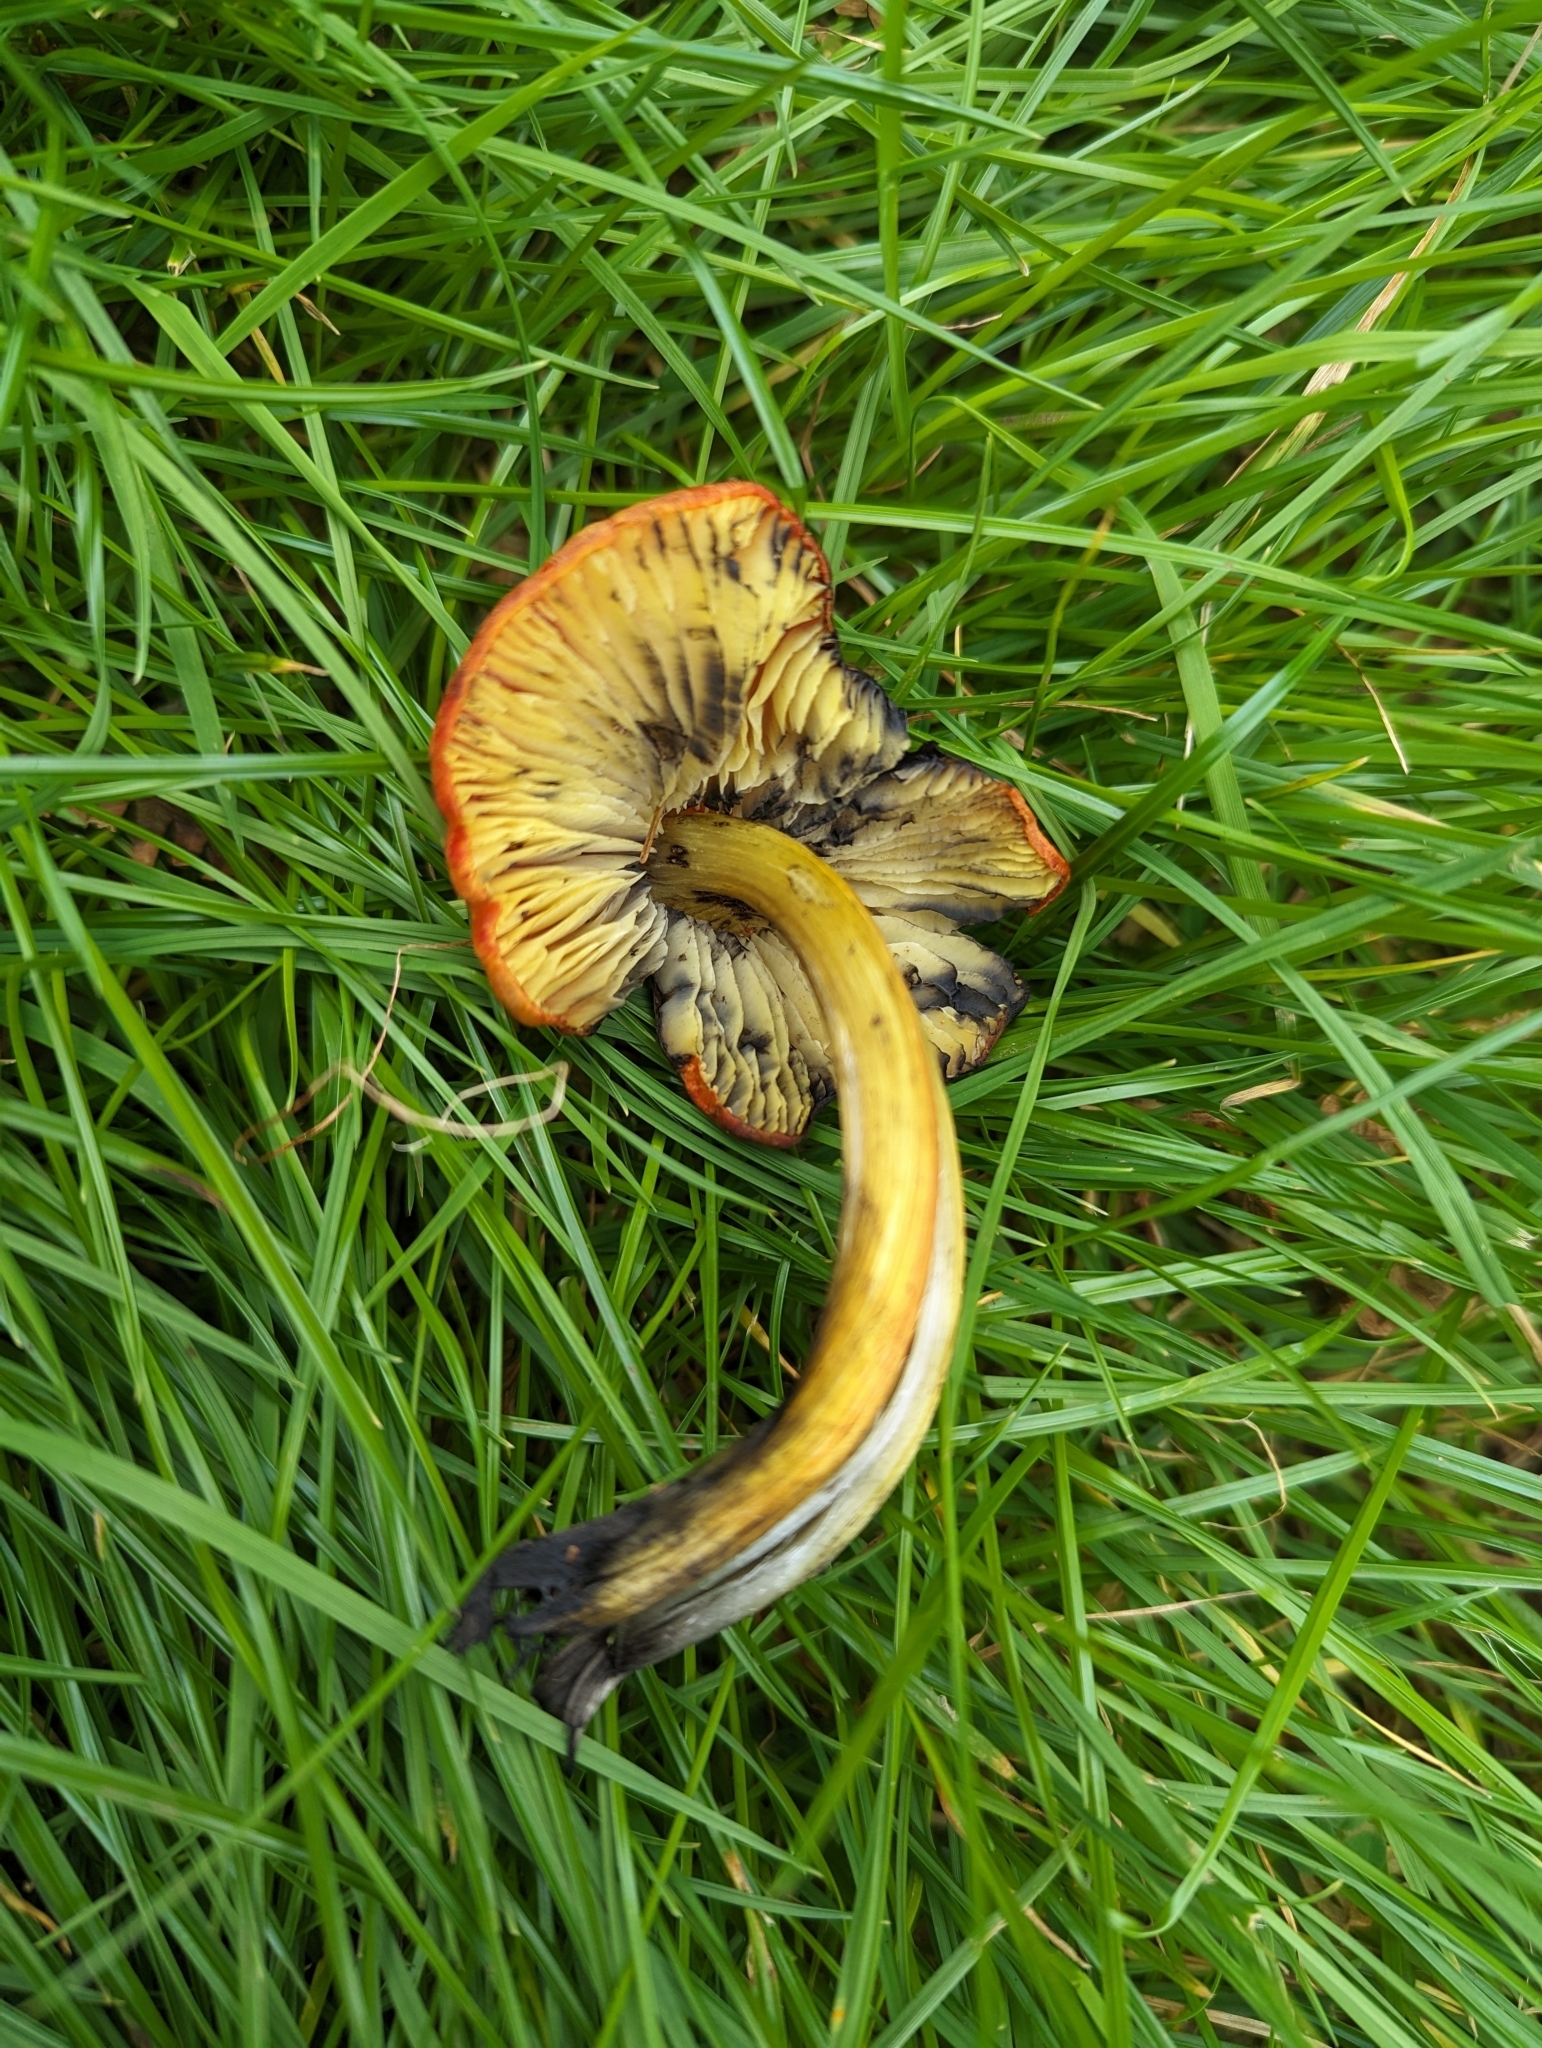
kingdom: Fungi
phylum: Basidiomycota
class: Agaricomycetes
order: Agaricales
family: Hygrophoraceae
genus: Hygrocybe
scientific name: Hygrocybe conica
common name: Blackening wax-cap
